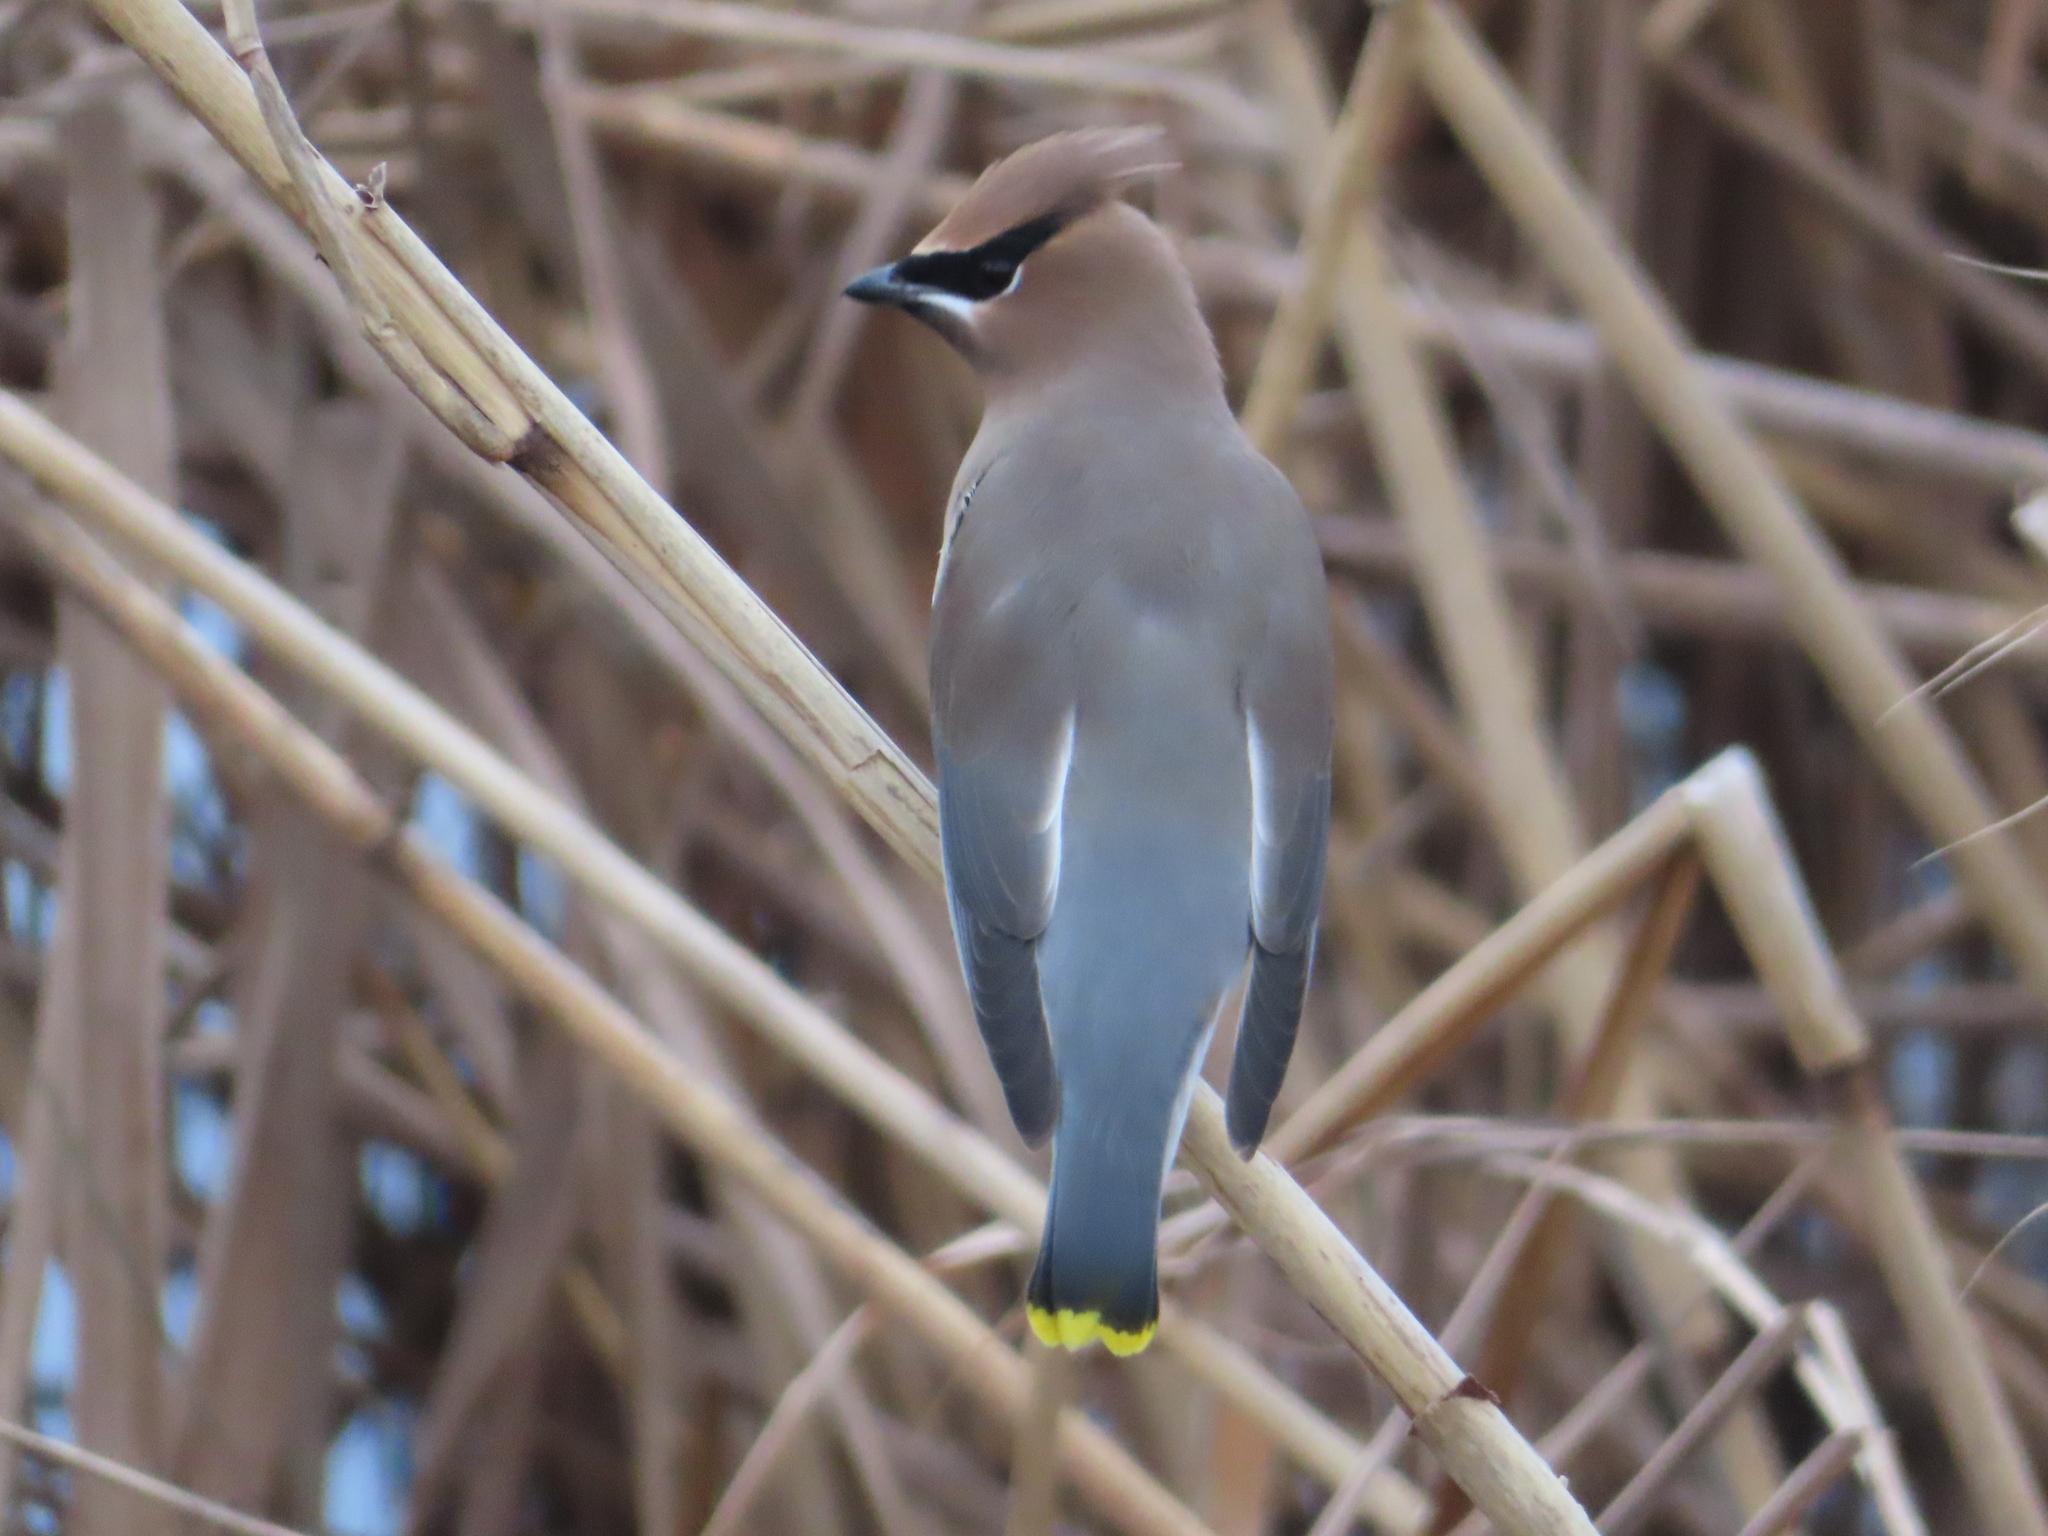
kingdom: Animalia
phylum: Chordata
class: Aves
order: Passeriformes
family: Bombycillidae
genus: Bombycilla
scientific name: Bombycilla cedrorum
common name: Cedar waxwing
